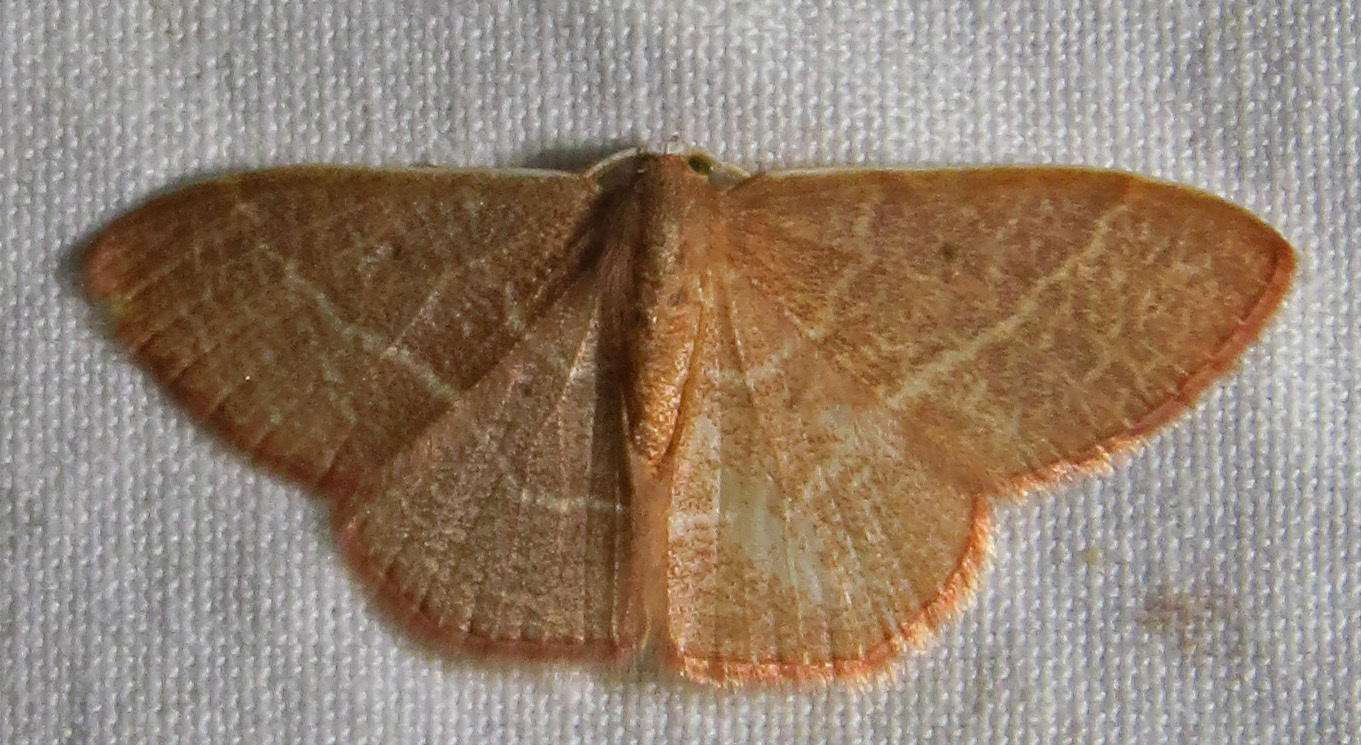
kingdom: Animalia
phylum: Arthropoda
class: Insecta
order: Lepidoptera
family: Geometridae
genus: Nemoria
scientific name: Nemoria bistriaria
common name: Red-fringed emerald
